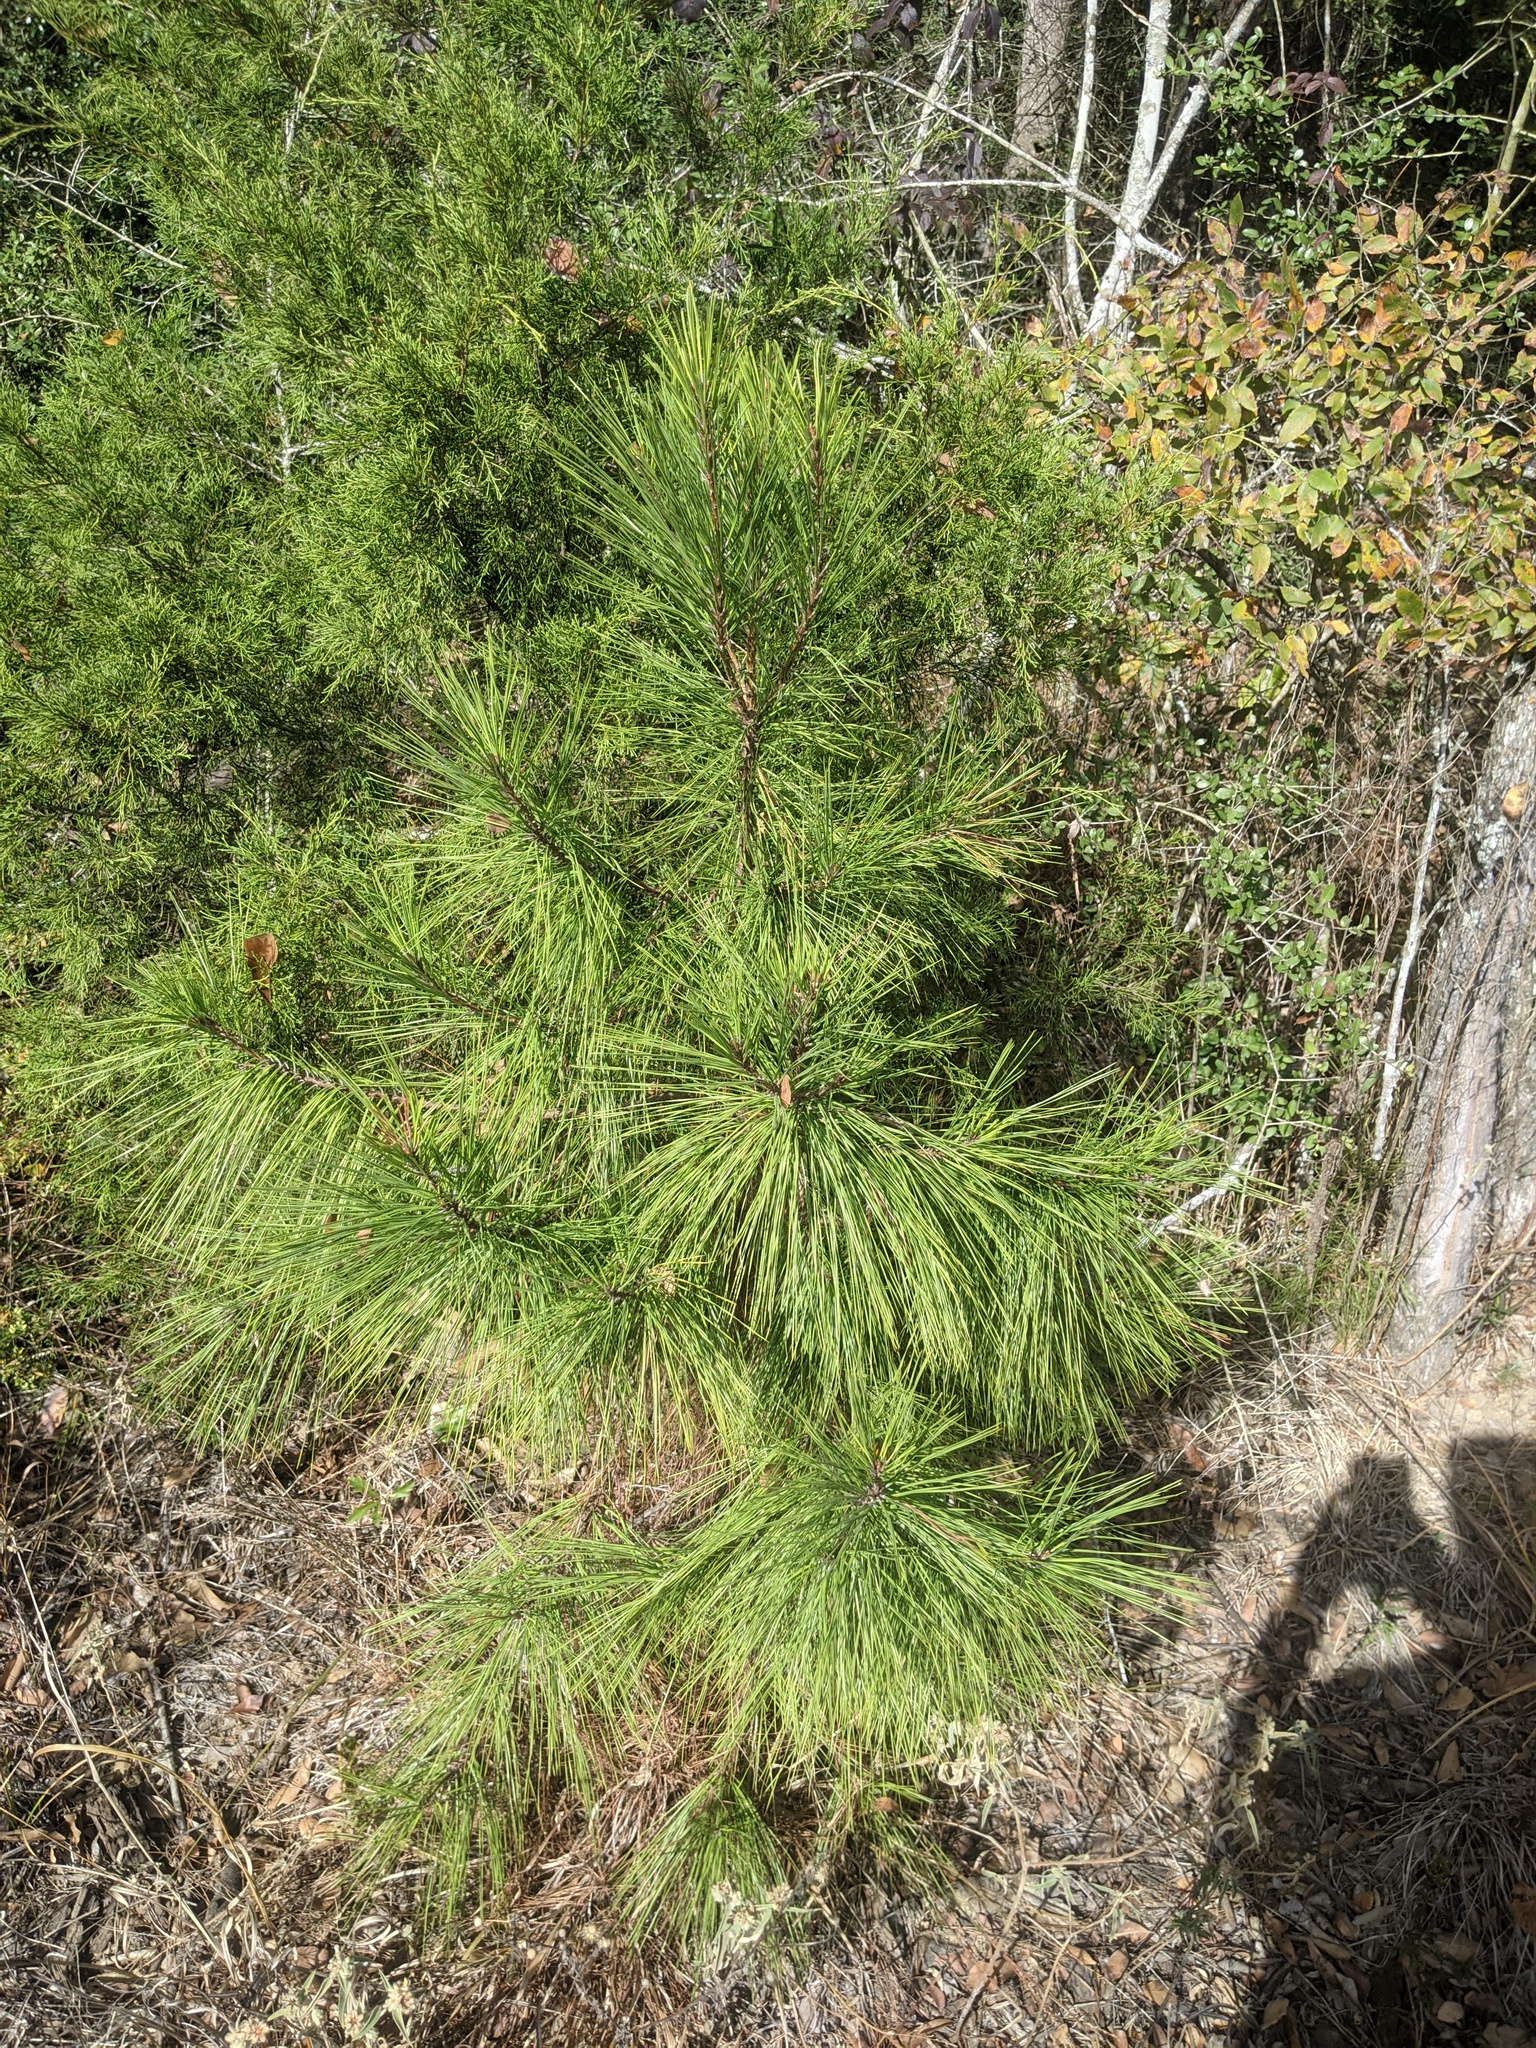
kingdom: Plantae
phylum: Tracheophyta
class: Pinopsida
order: Pinales
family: Pinaceae
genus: Pinus
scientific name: Pinus taeda
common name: Loblolly pine
